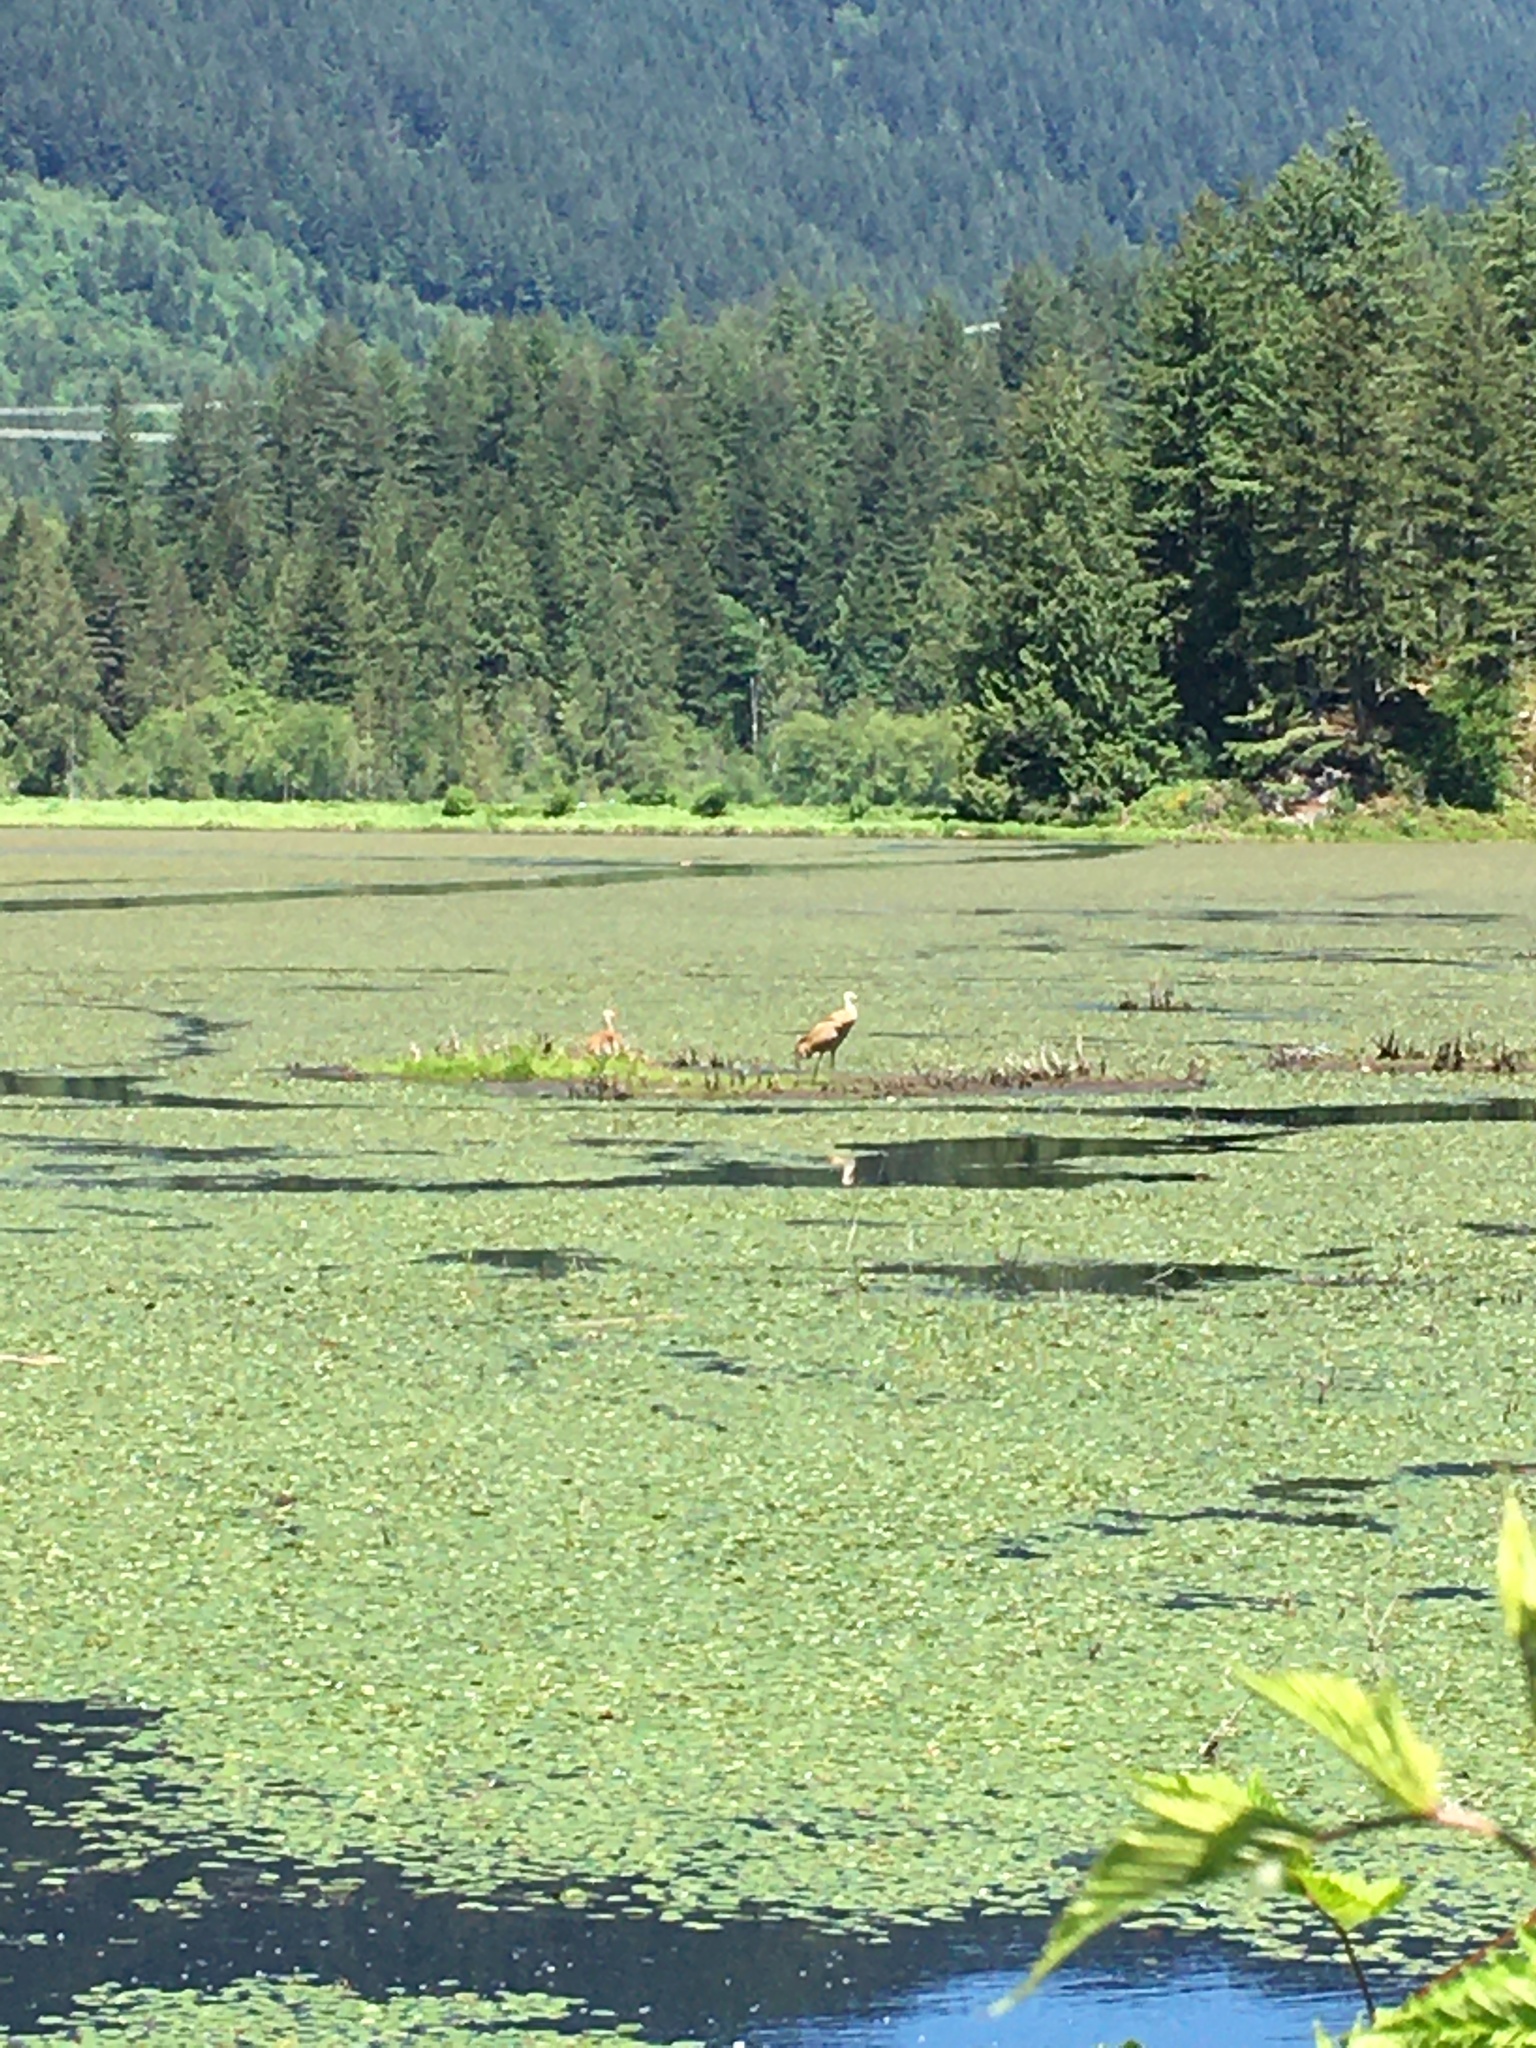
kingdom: Animalia
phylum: Chordata
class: Aves
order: Gruiformes
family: Gruidae
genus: Grus
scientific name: Grus canadensis
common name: Sandhill crane
